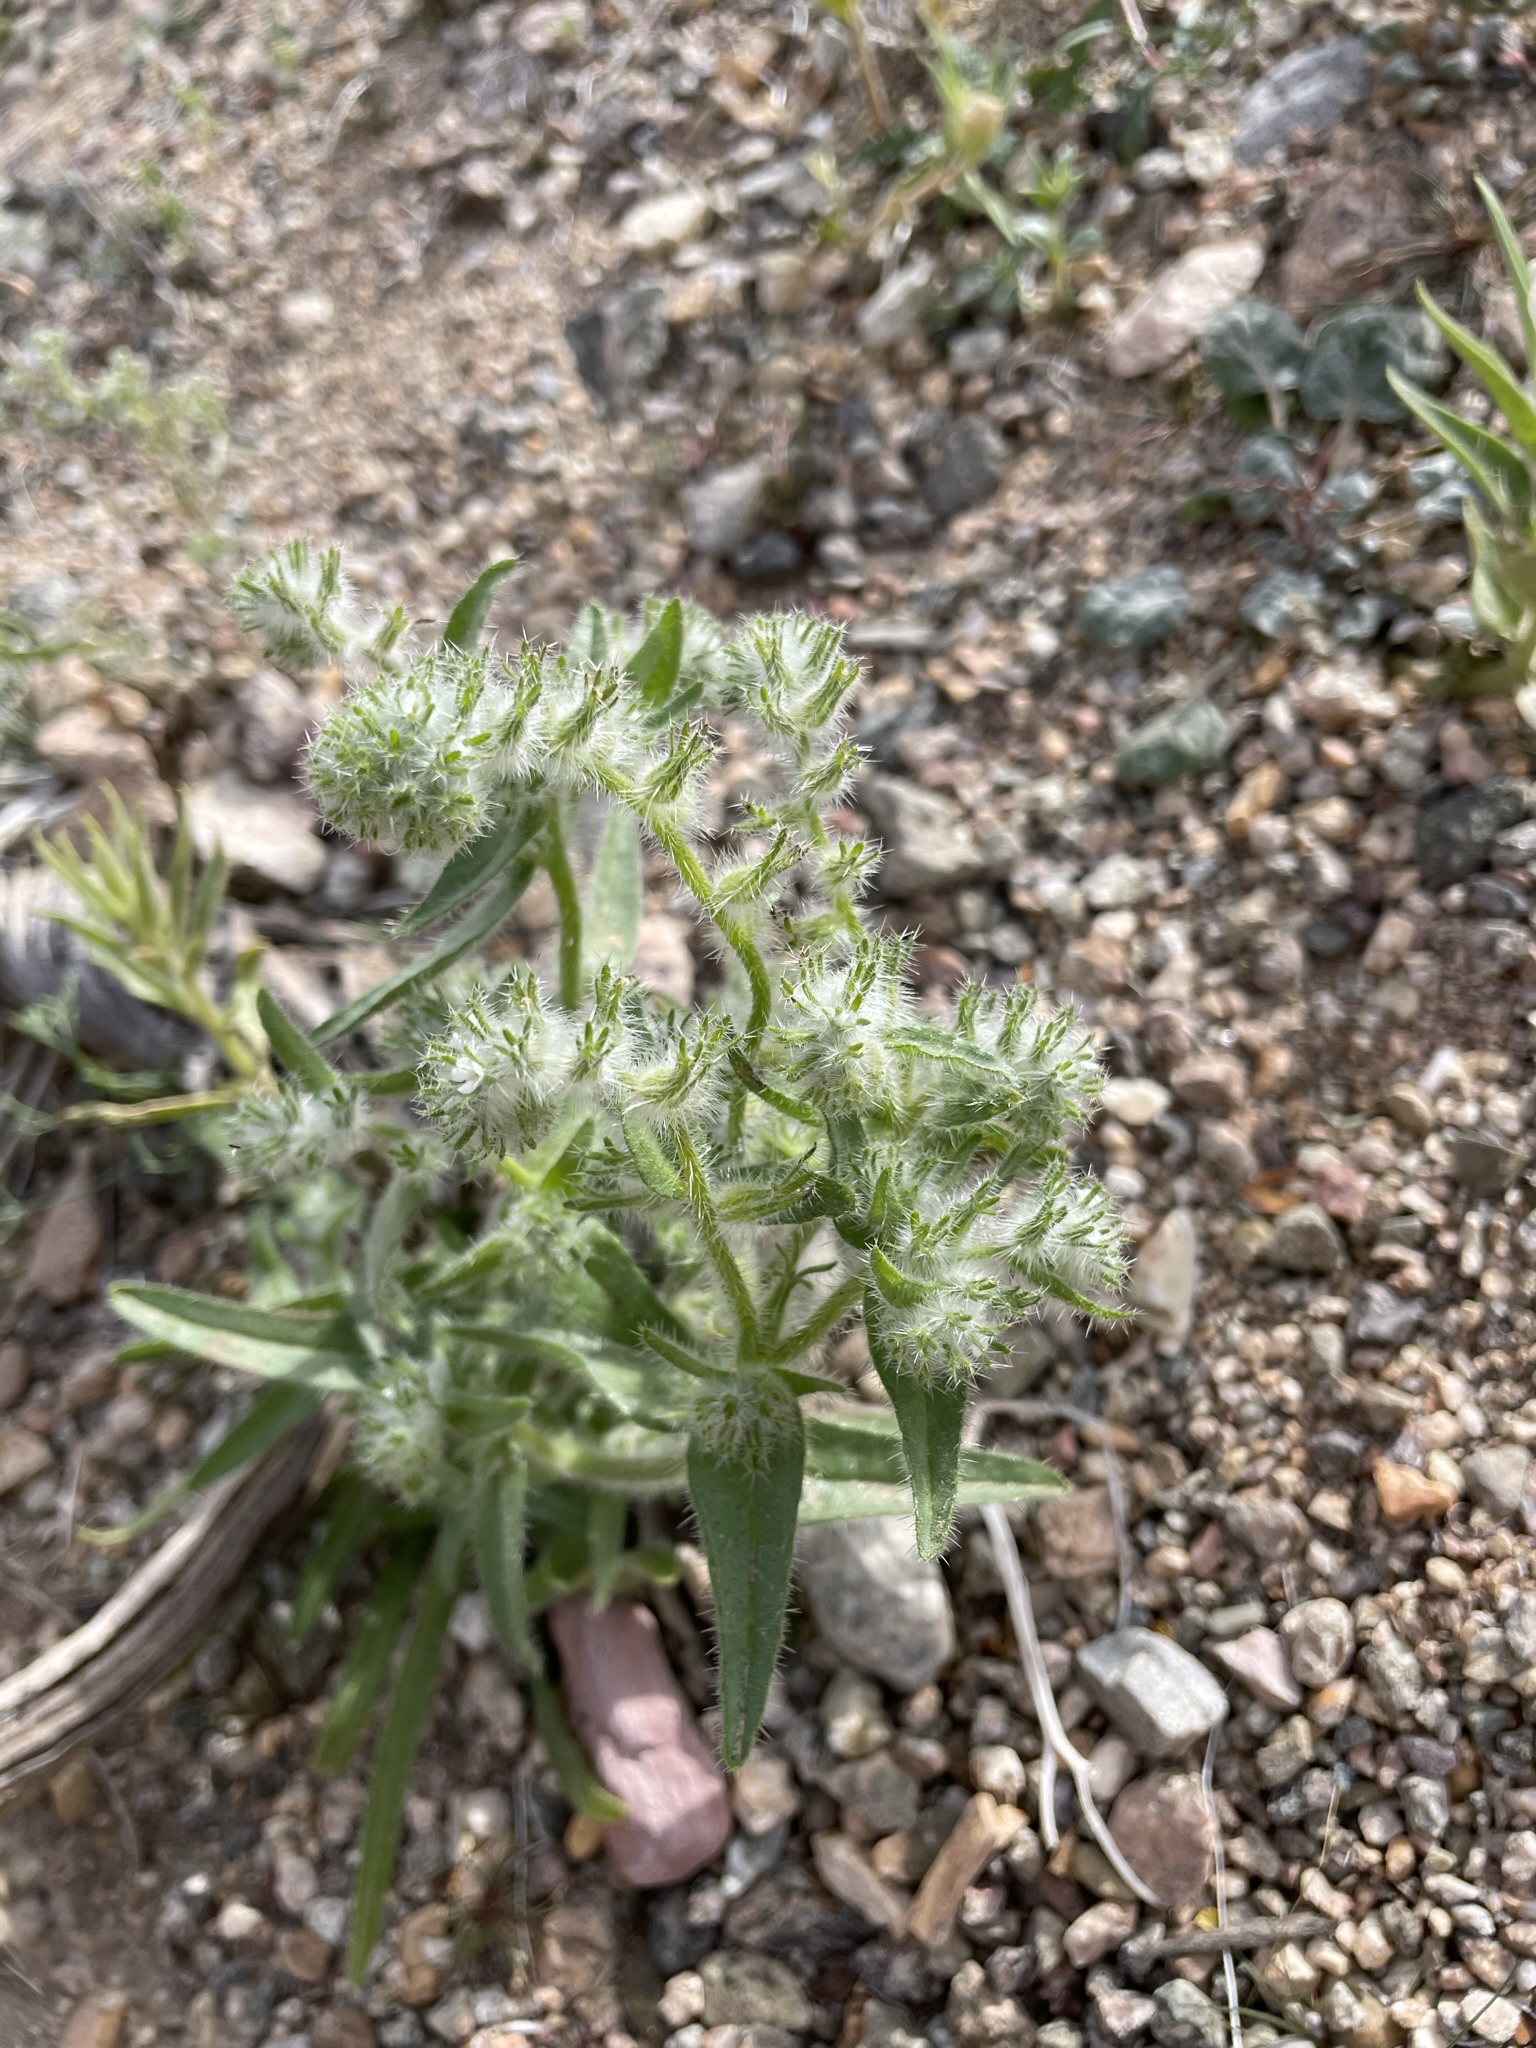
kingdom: Plantae
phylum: Tracheophyta
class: Magnoliopsida
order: Boraginales
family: Boraginaceae
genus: Cryptantha
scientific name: Cryptantha barbigera
